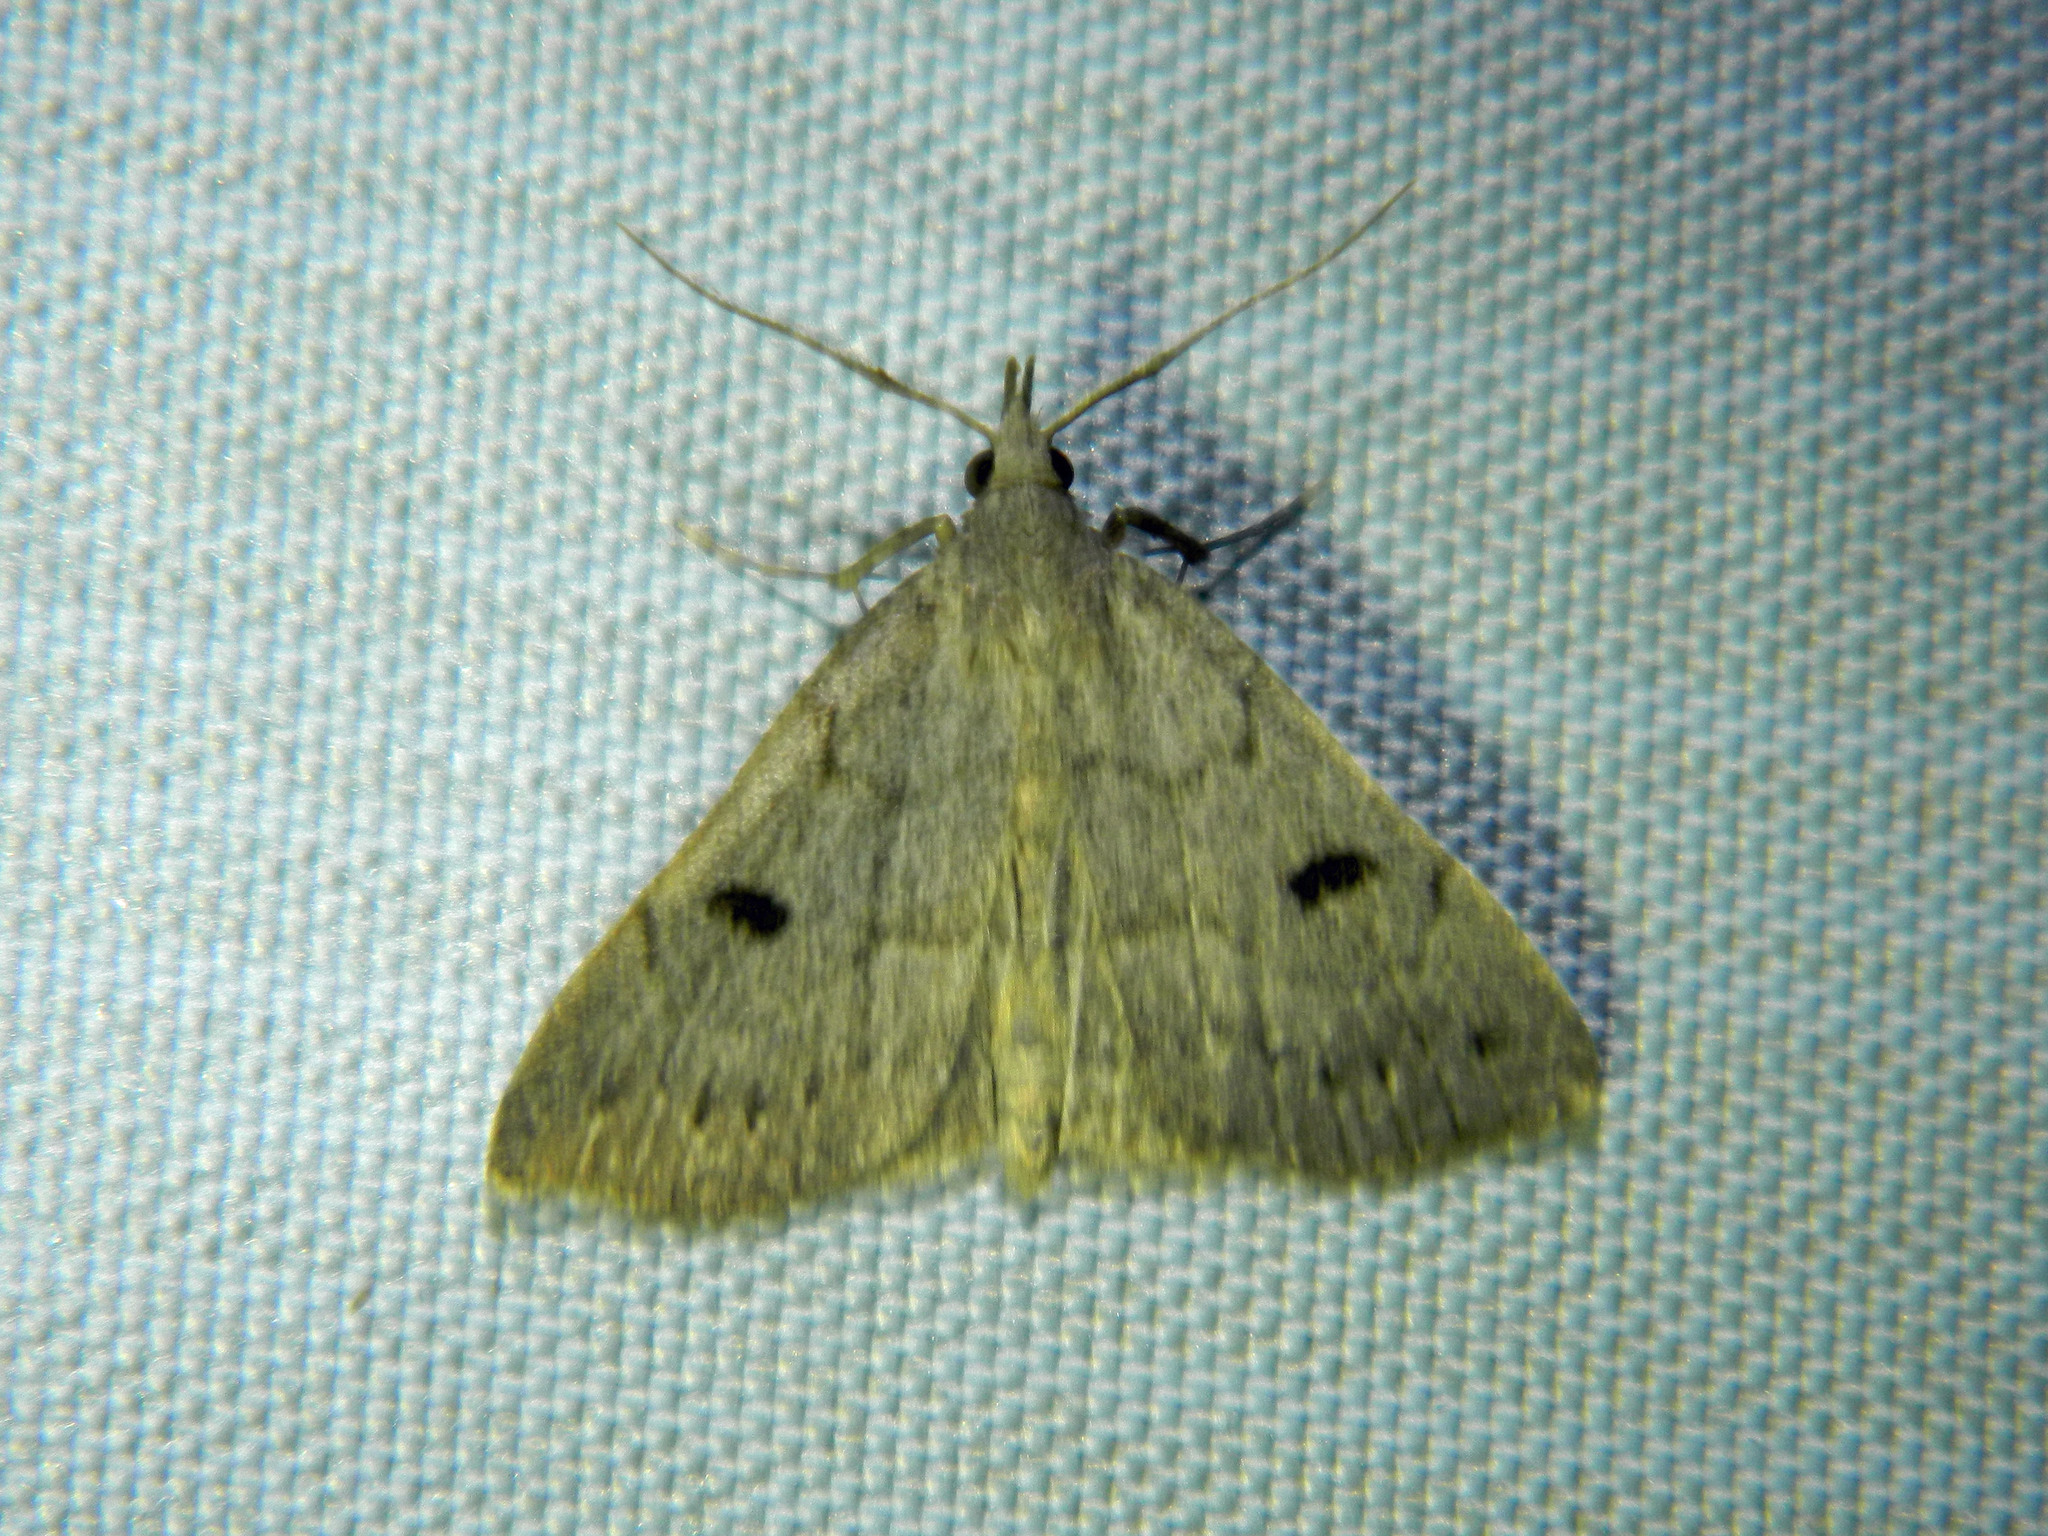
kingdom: Animalia
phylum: Arthropoda
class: Insecta
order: Lepidoptera
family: Erebidae
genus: Macrochilo
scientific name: Macrochilo morbidalis
